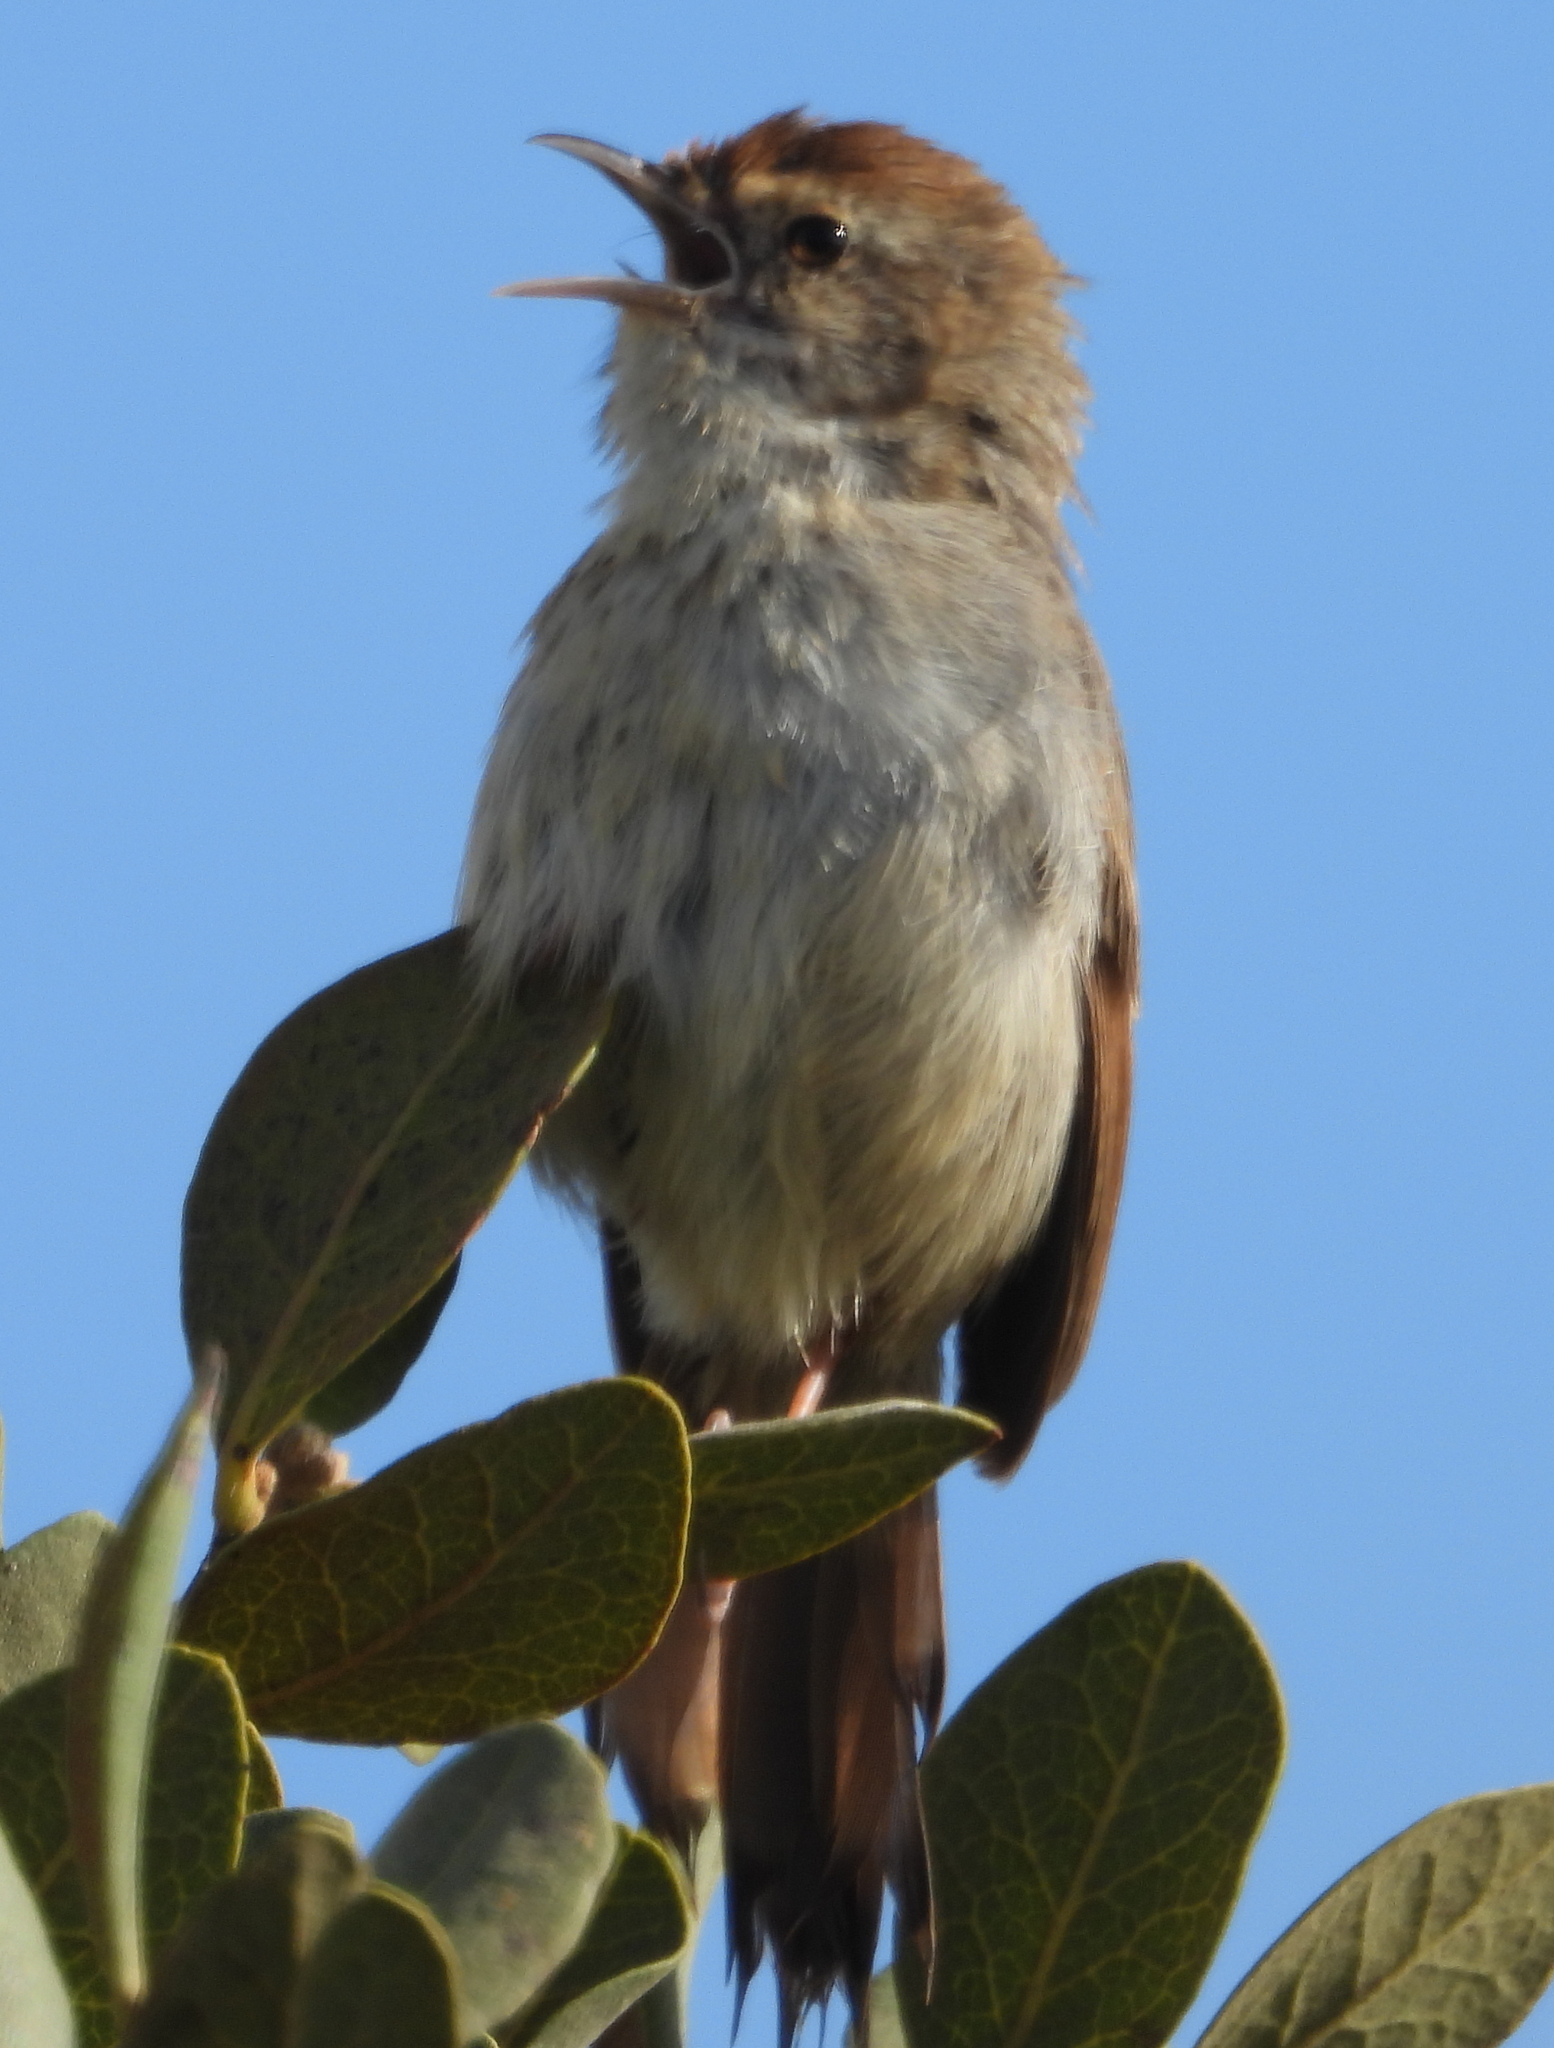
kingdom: Animalia
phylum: Chordata
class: Aves
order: Passeriformes
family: Cisticolidae
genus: Cisticola
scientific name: Cisticola subruficapilla
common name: Grey-backed cisticola
